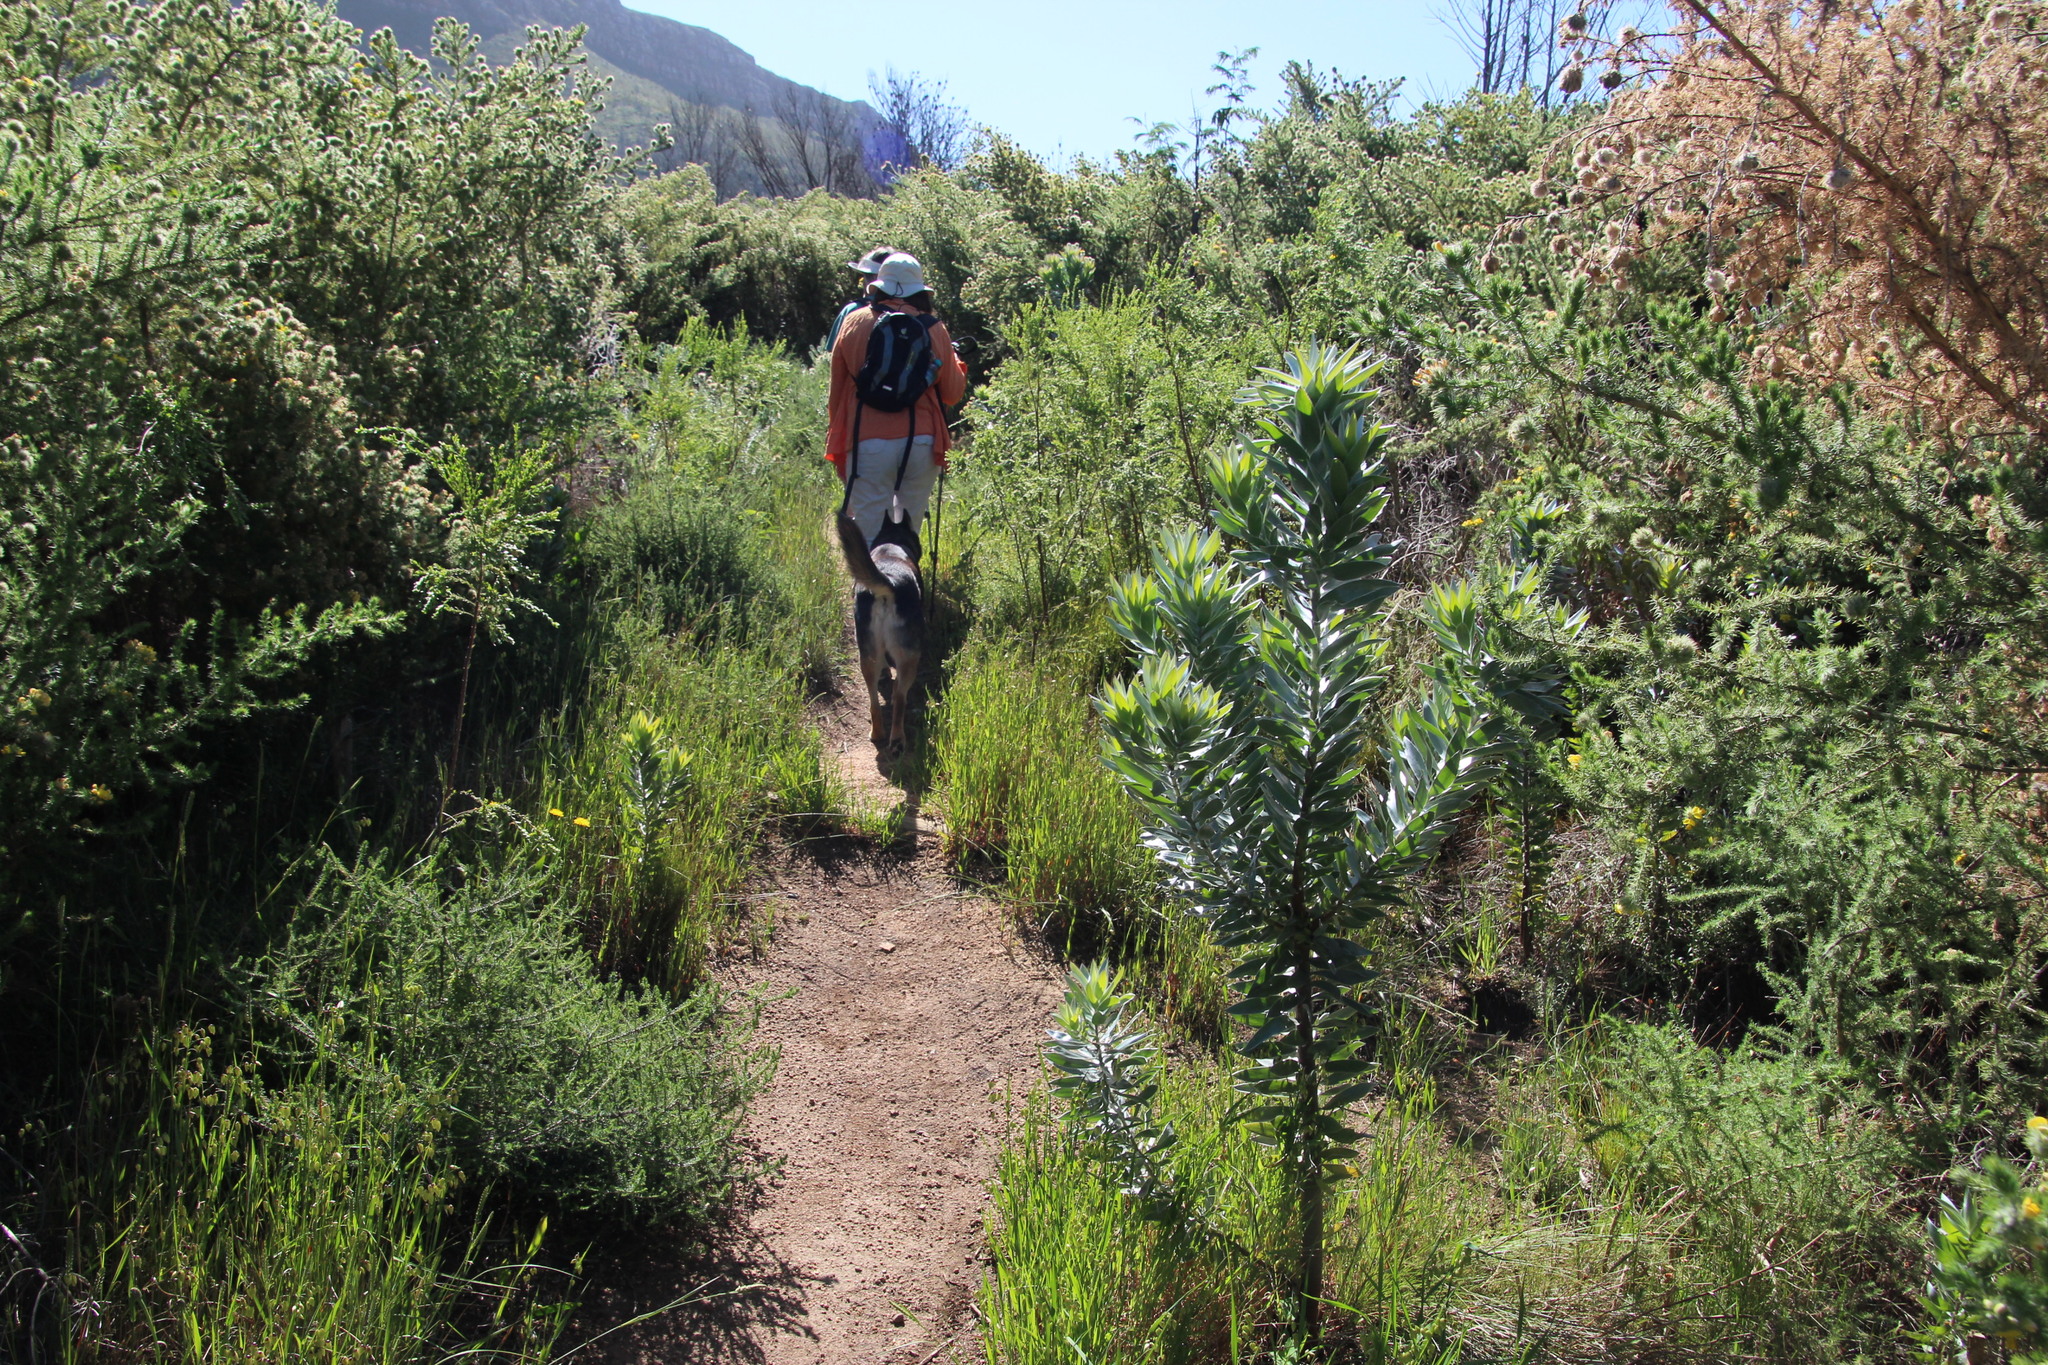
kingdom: Plantae
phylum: Tracheophyta
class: Magnoliopsida
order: Proteales
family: Proteaceae
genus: Leucadendron
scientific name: Leucadendron argenteum
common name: Cape silver tree
